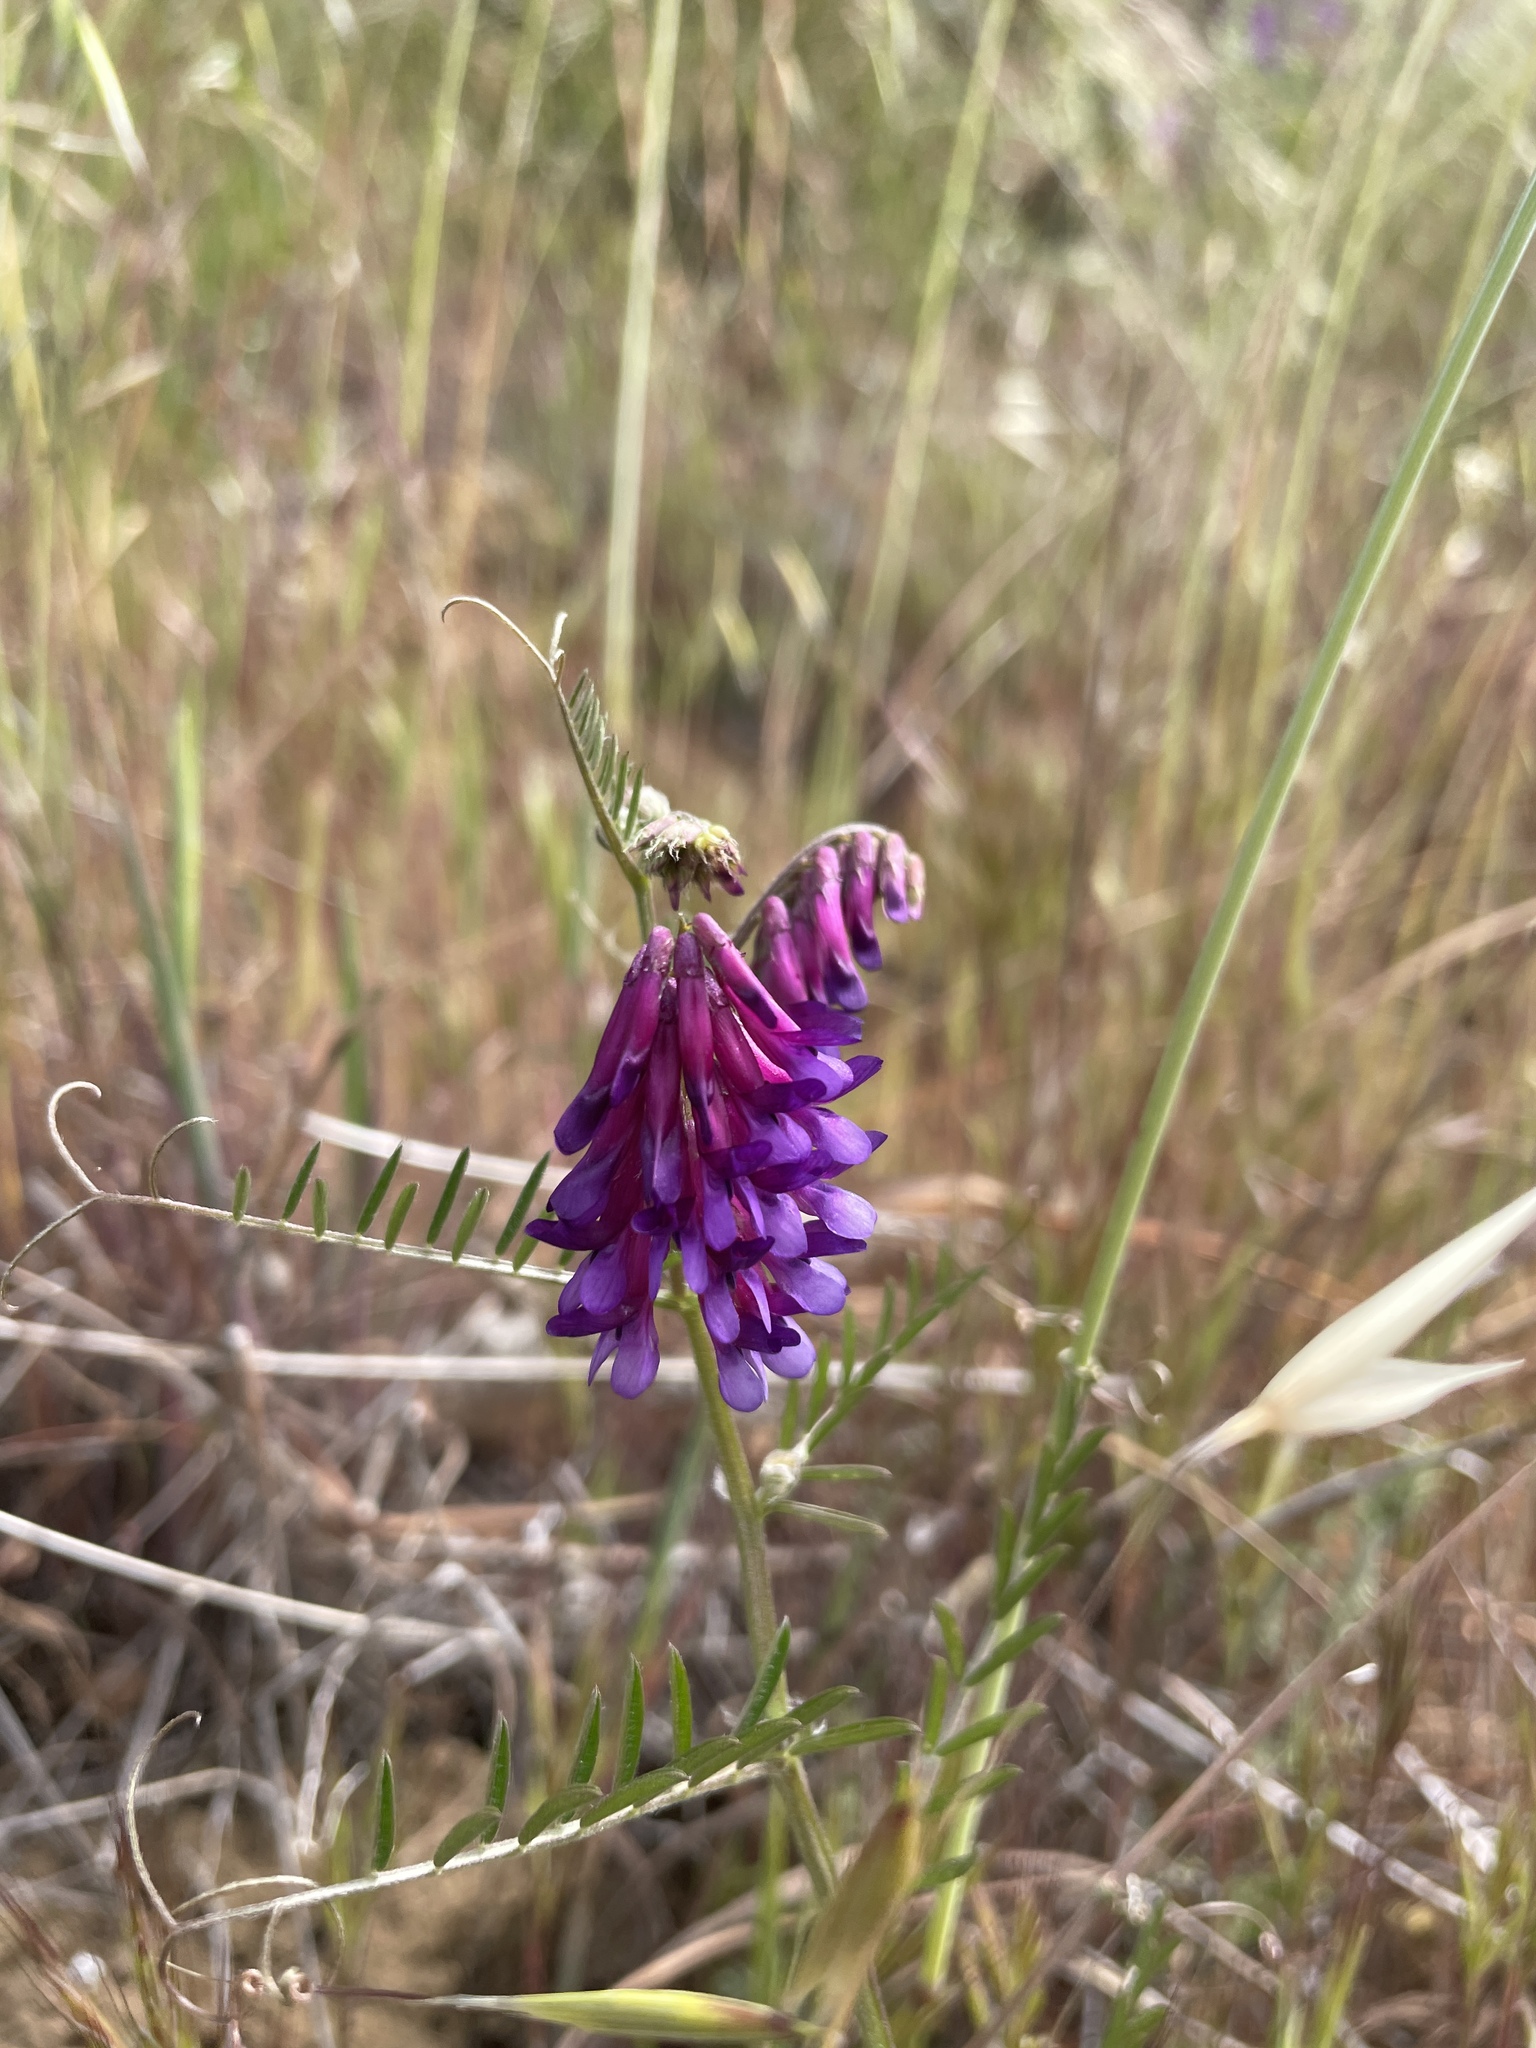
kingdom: Plantae
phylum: Tracheophyta
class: Magnoliopsida
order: Fabales
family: Fabaceae
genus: Vicia
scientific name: Vicia villosa
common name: Fodder vetch
